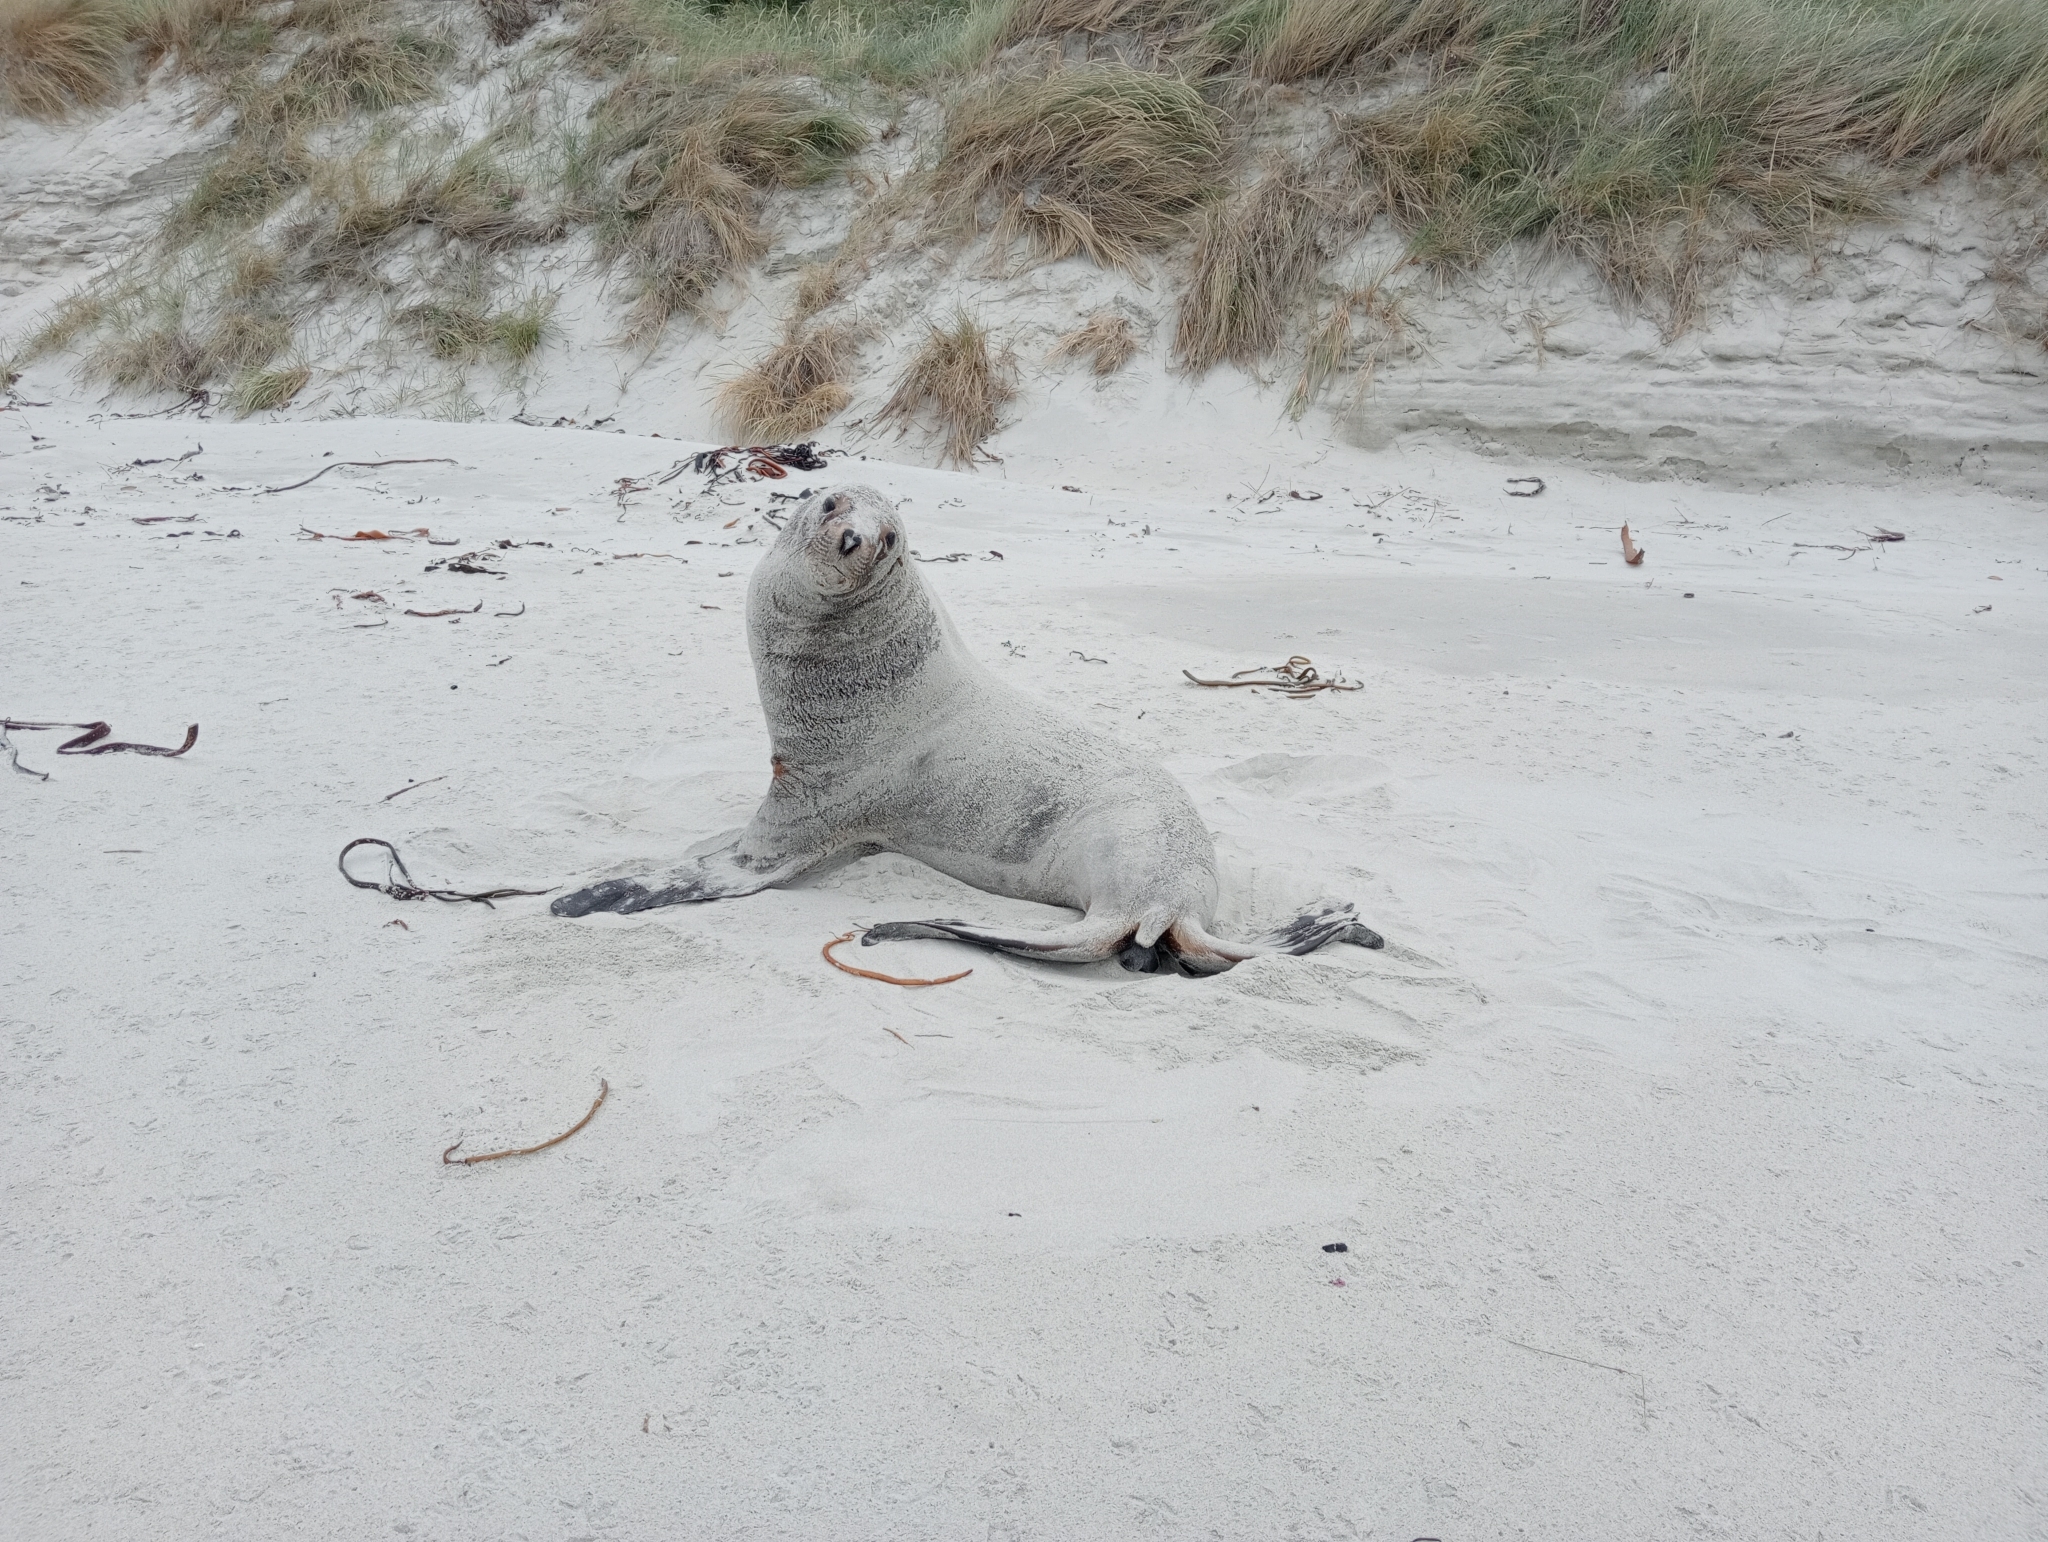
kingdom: Animalia
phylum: Chordata
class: Mammalia
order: Carnivora
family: Otariidae
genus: Phocarctos
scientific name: Phocarctos hookeri
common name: New zealand sea lion
